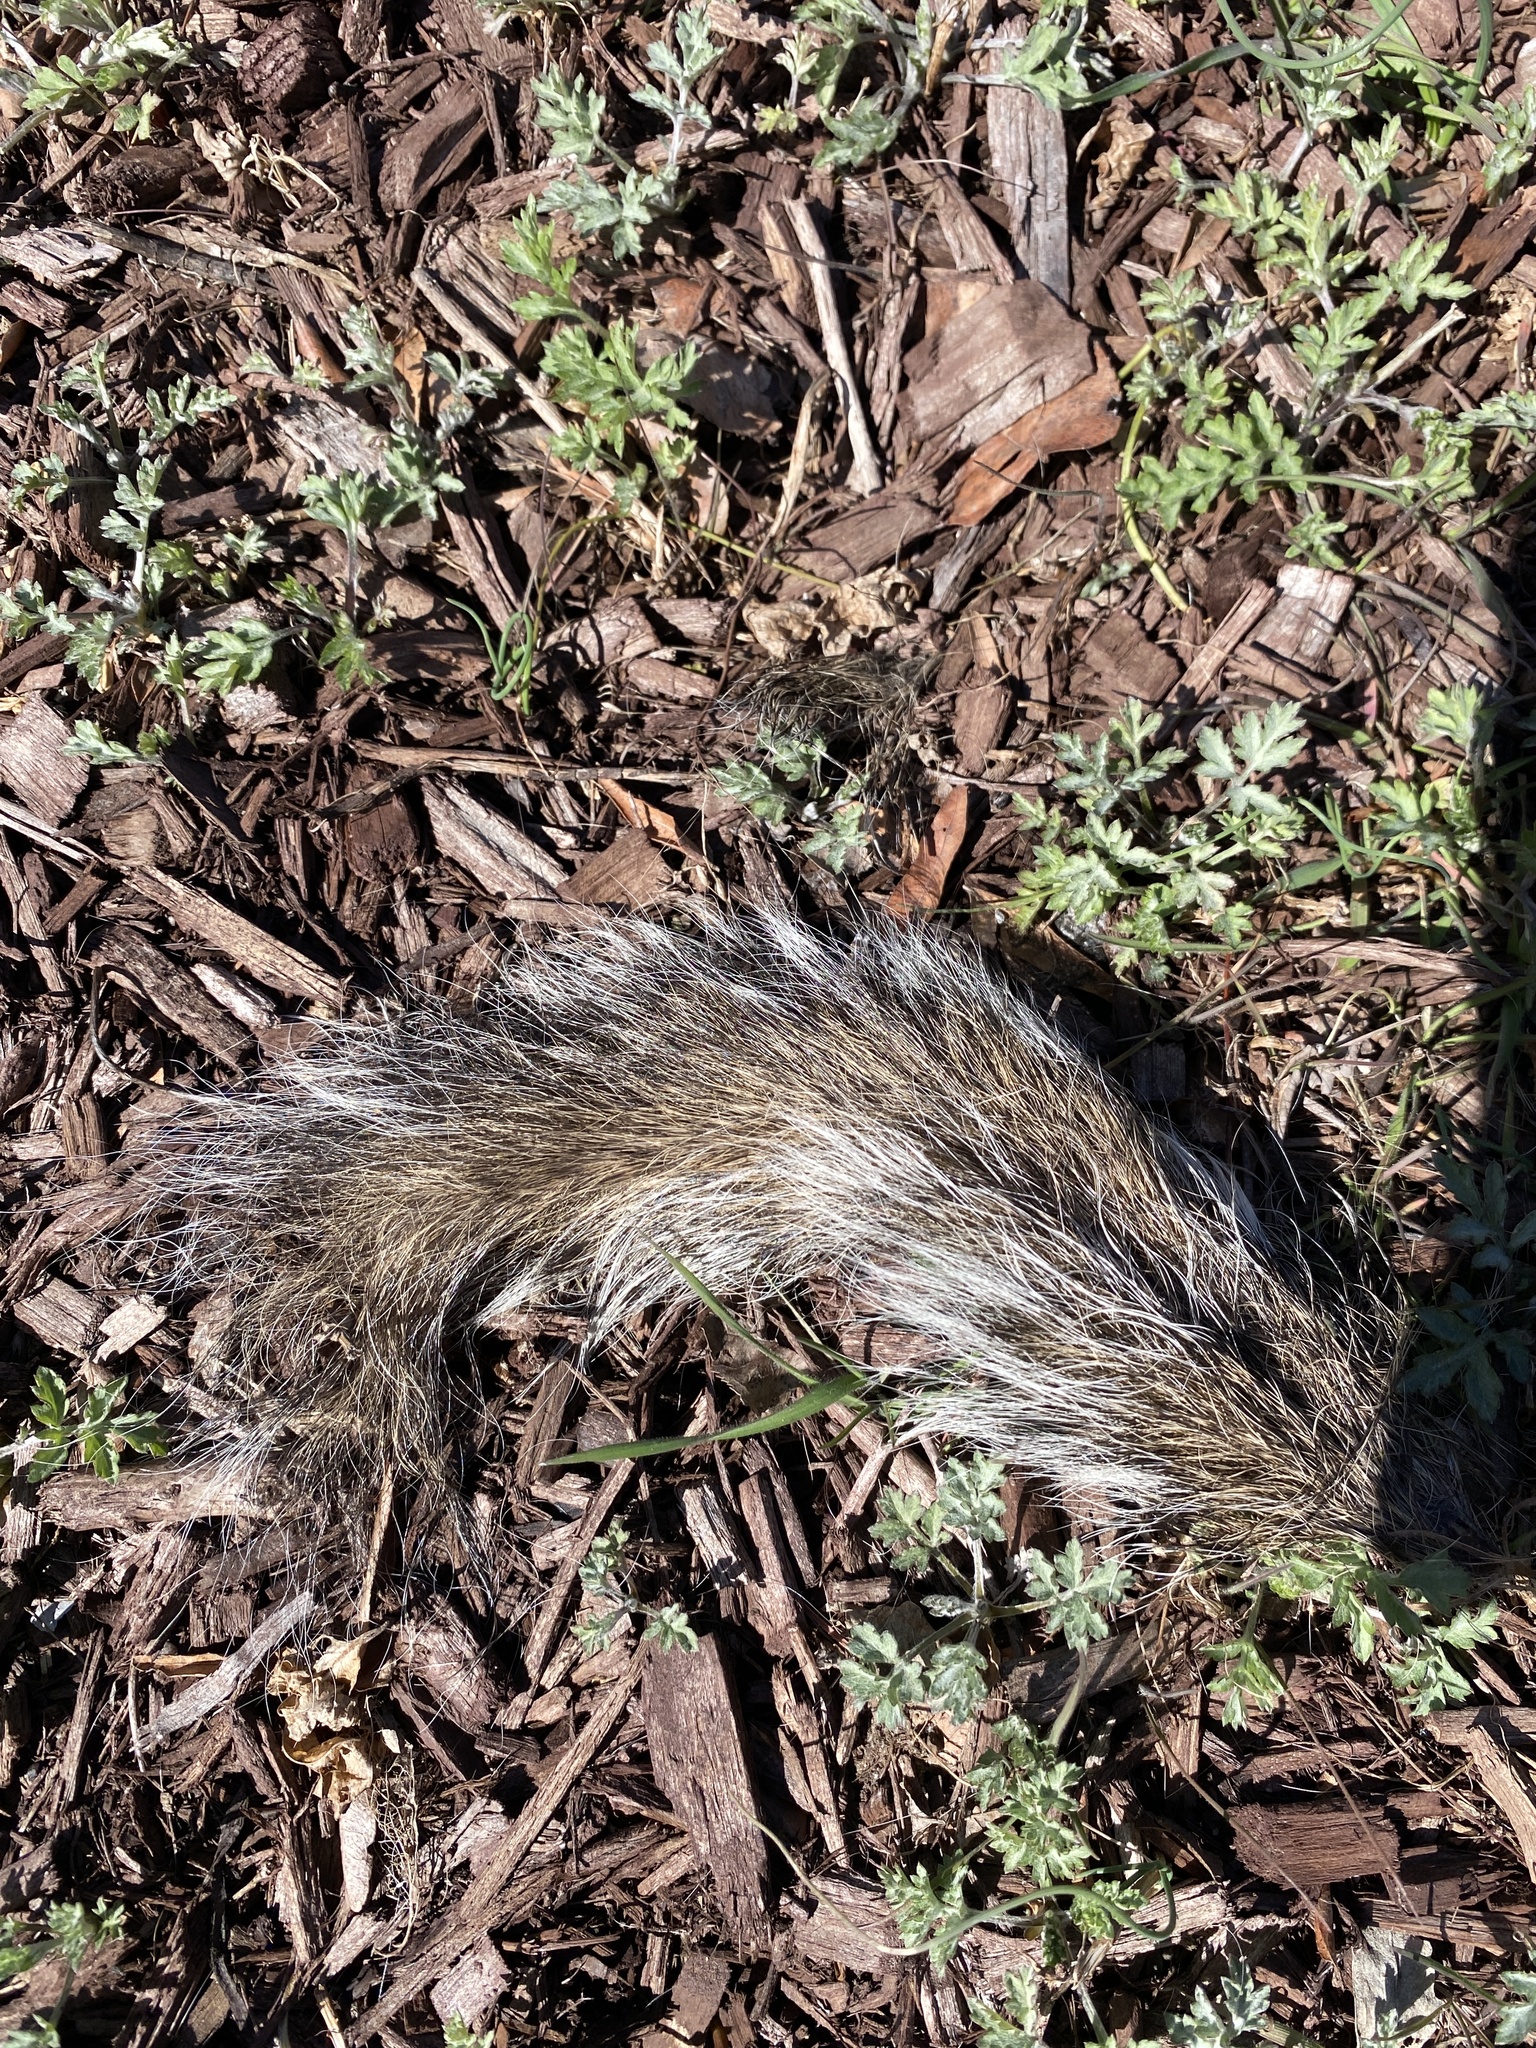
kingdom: Animalia
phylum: Chordata
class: Mammalia
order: Rodentia
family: Sciuridae
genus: Sciurus
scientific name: Sciurus carolinensis
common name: Eastern gray squirrel
